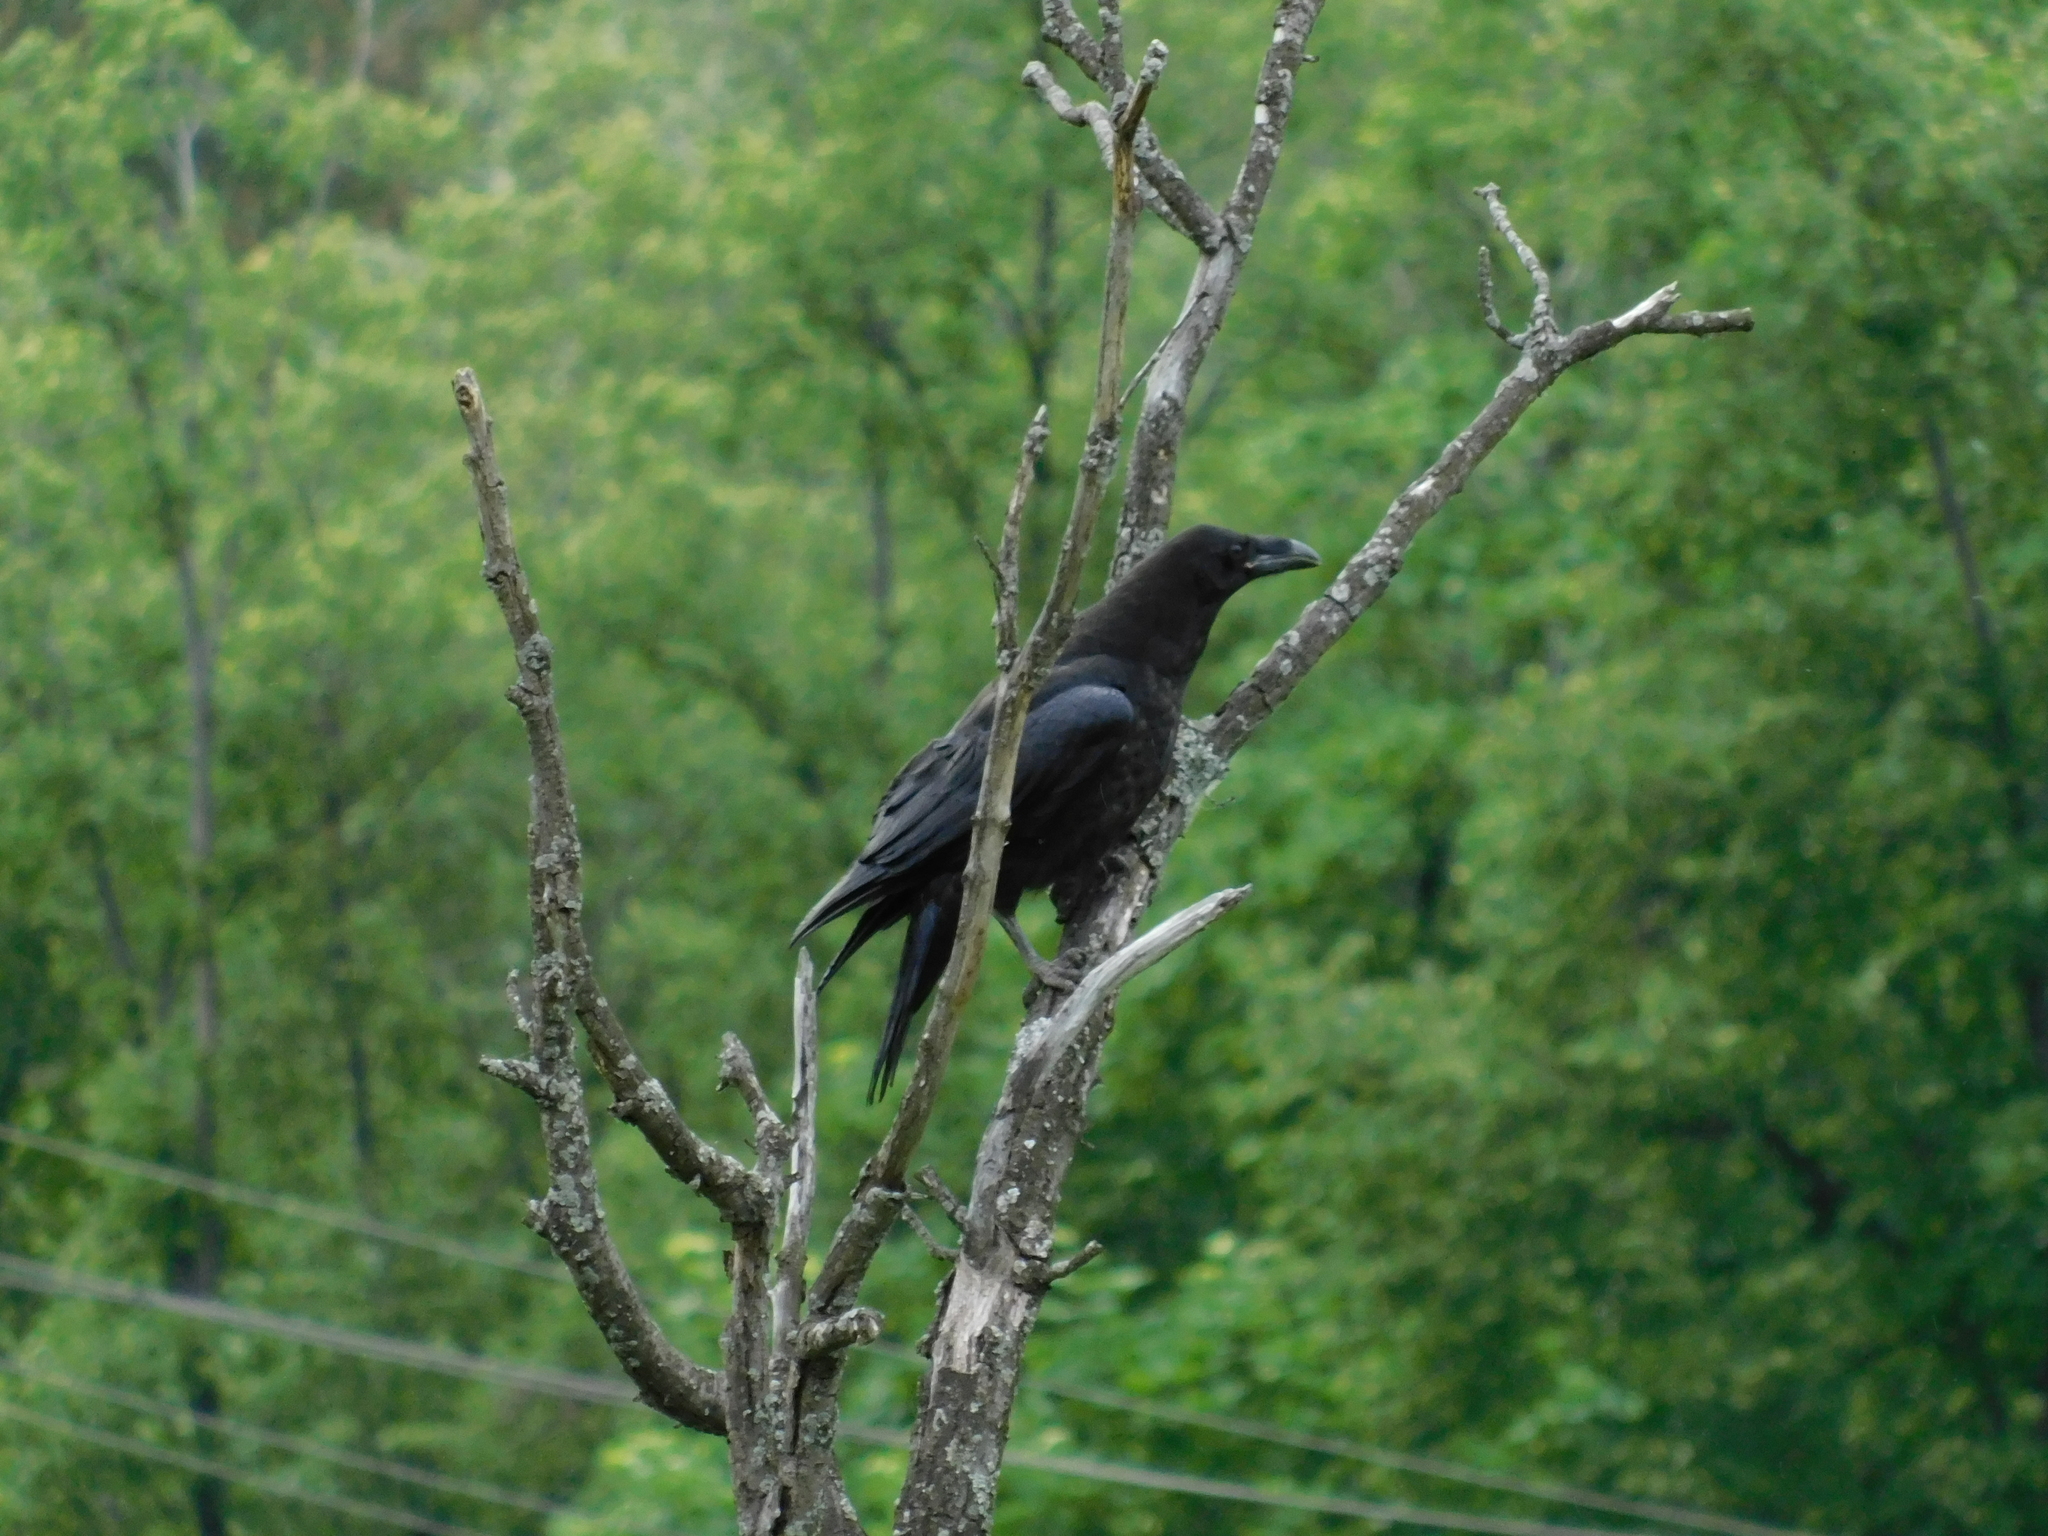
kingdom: Animalia
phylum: Chordata
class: Aves
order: Passeriformes
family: Corvidae
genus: Corvus
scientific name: Corvus corax
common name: Common raven
